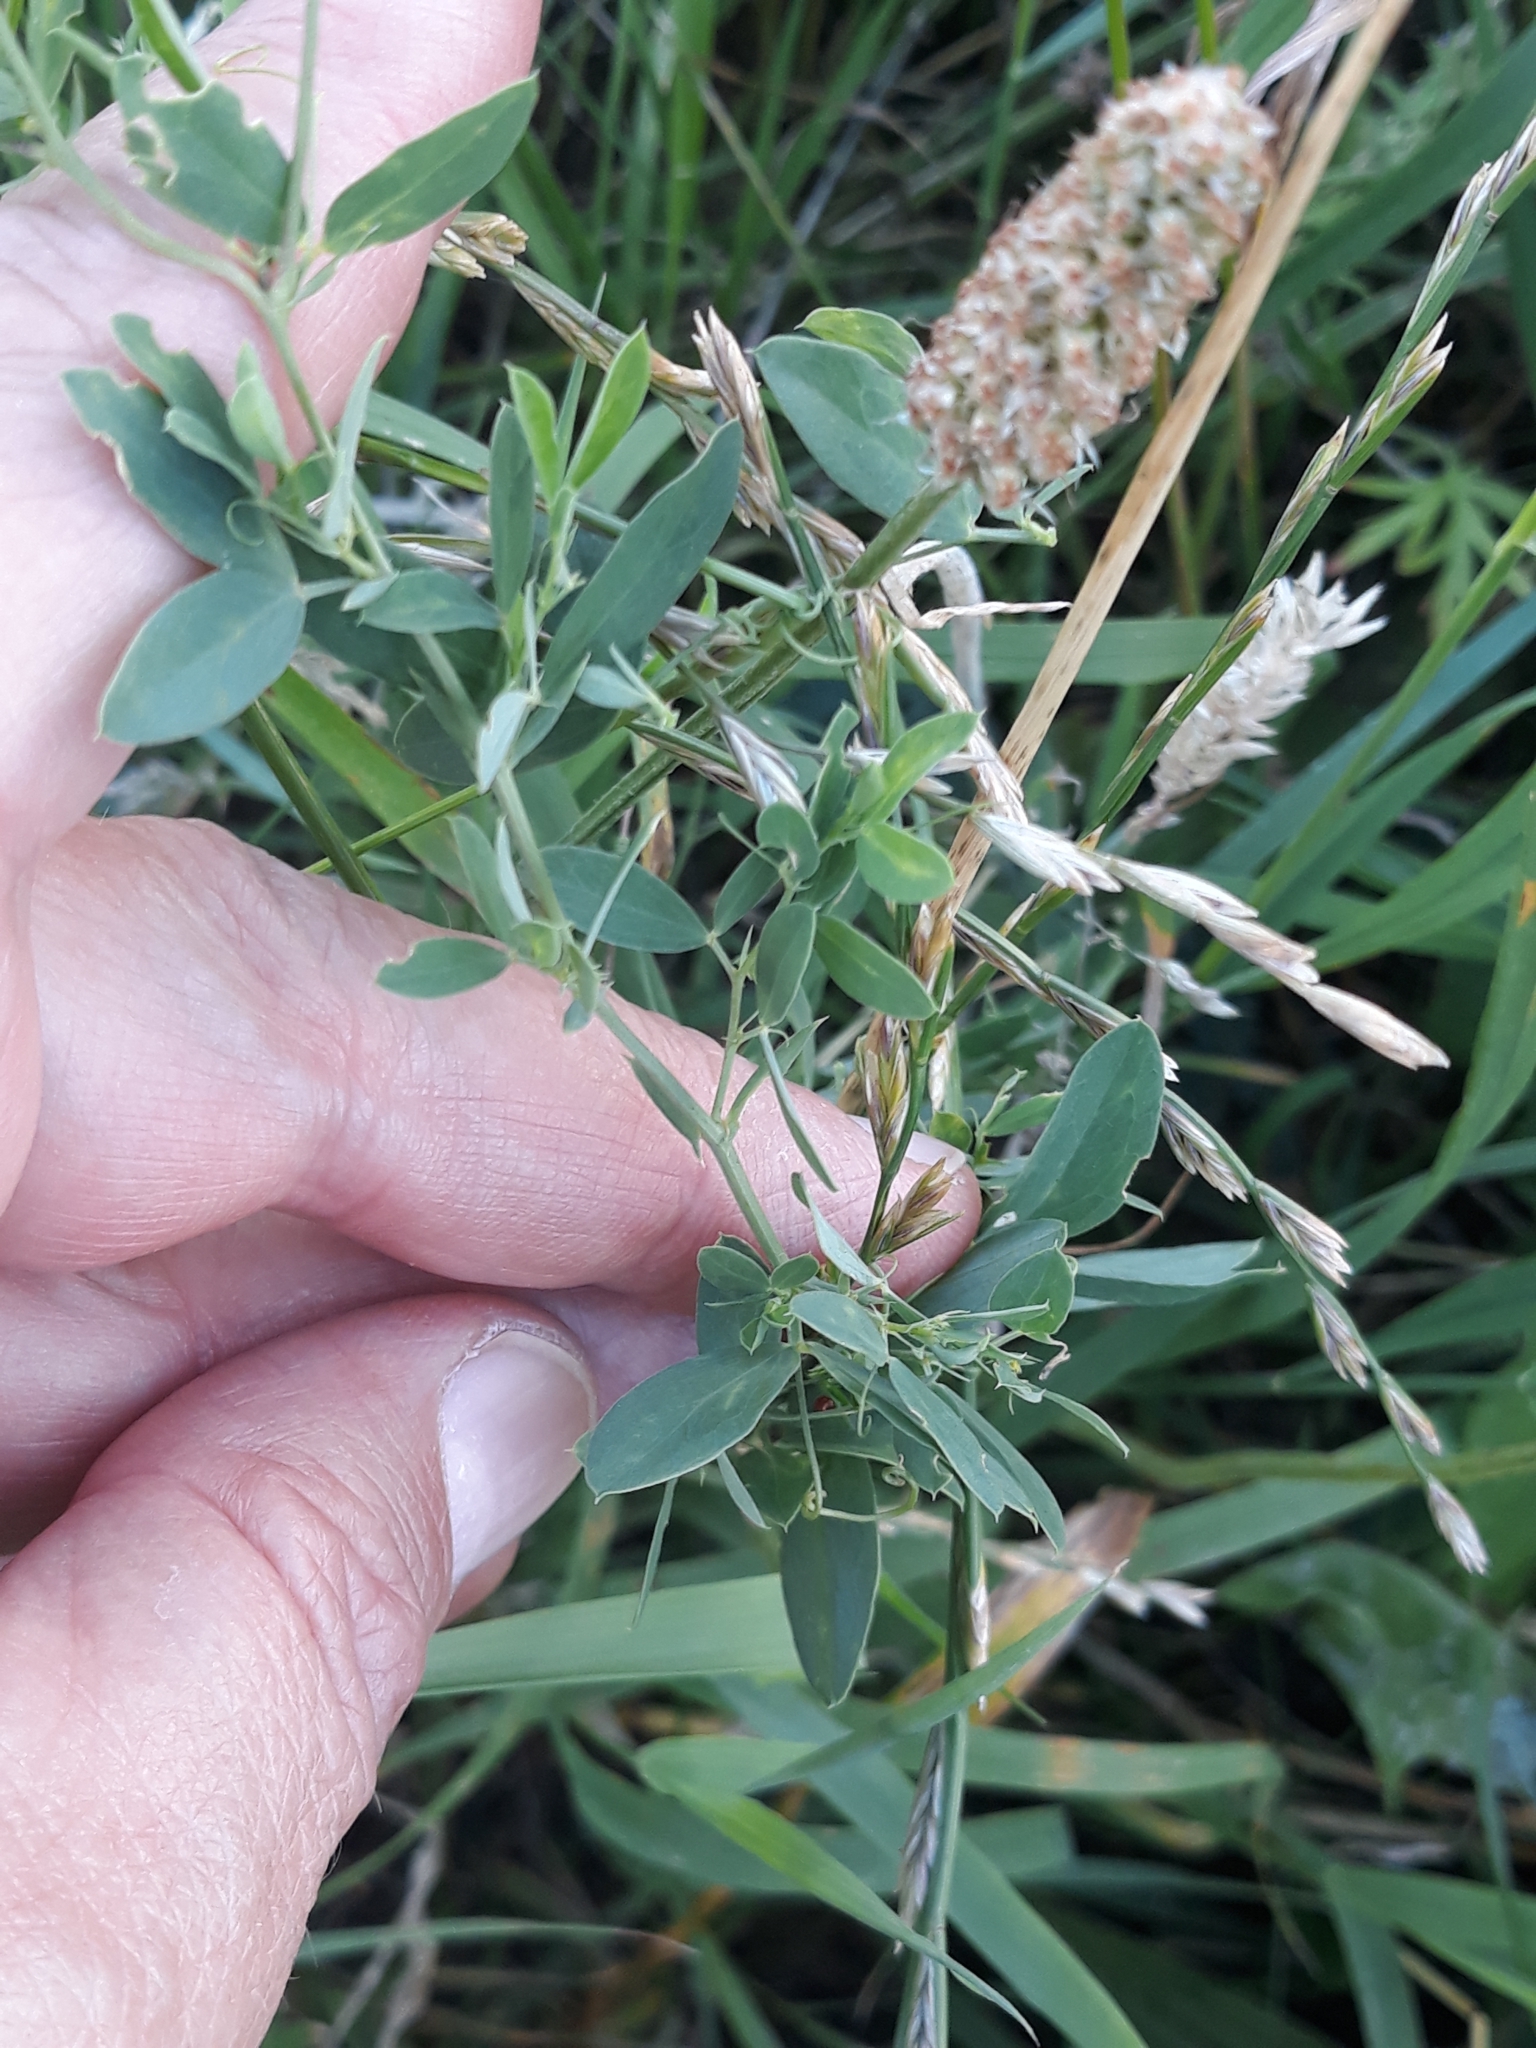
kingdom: Plantae
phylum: Tracheophyta
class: Magnoliopsida
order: Fabales
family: Fabaceae
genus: Lathyrus
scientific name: Lathyrus tuberosus
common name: Tuberous pea
